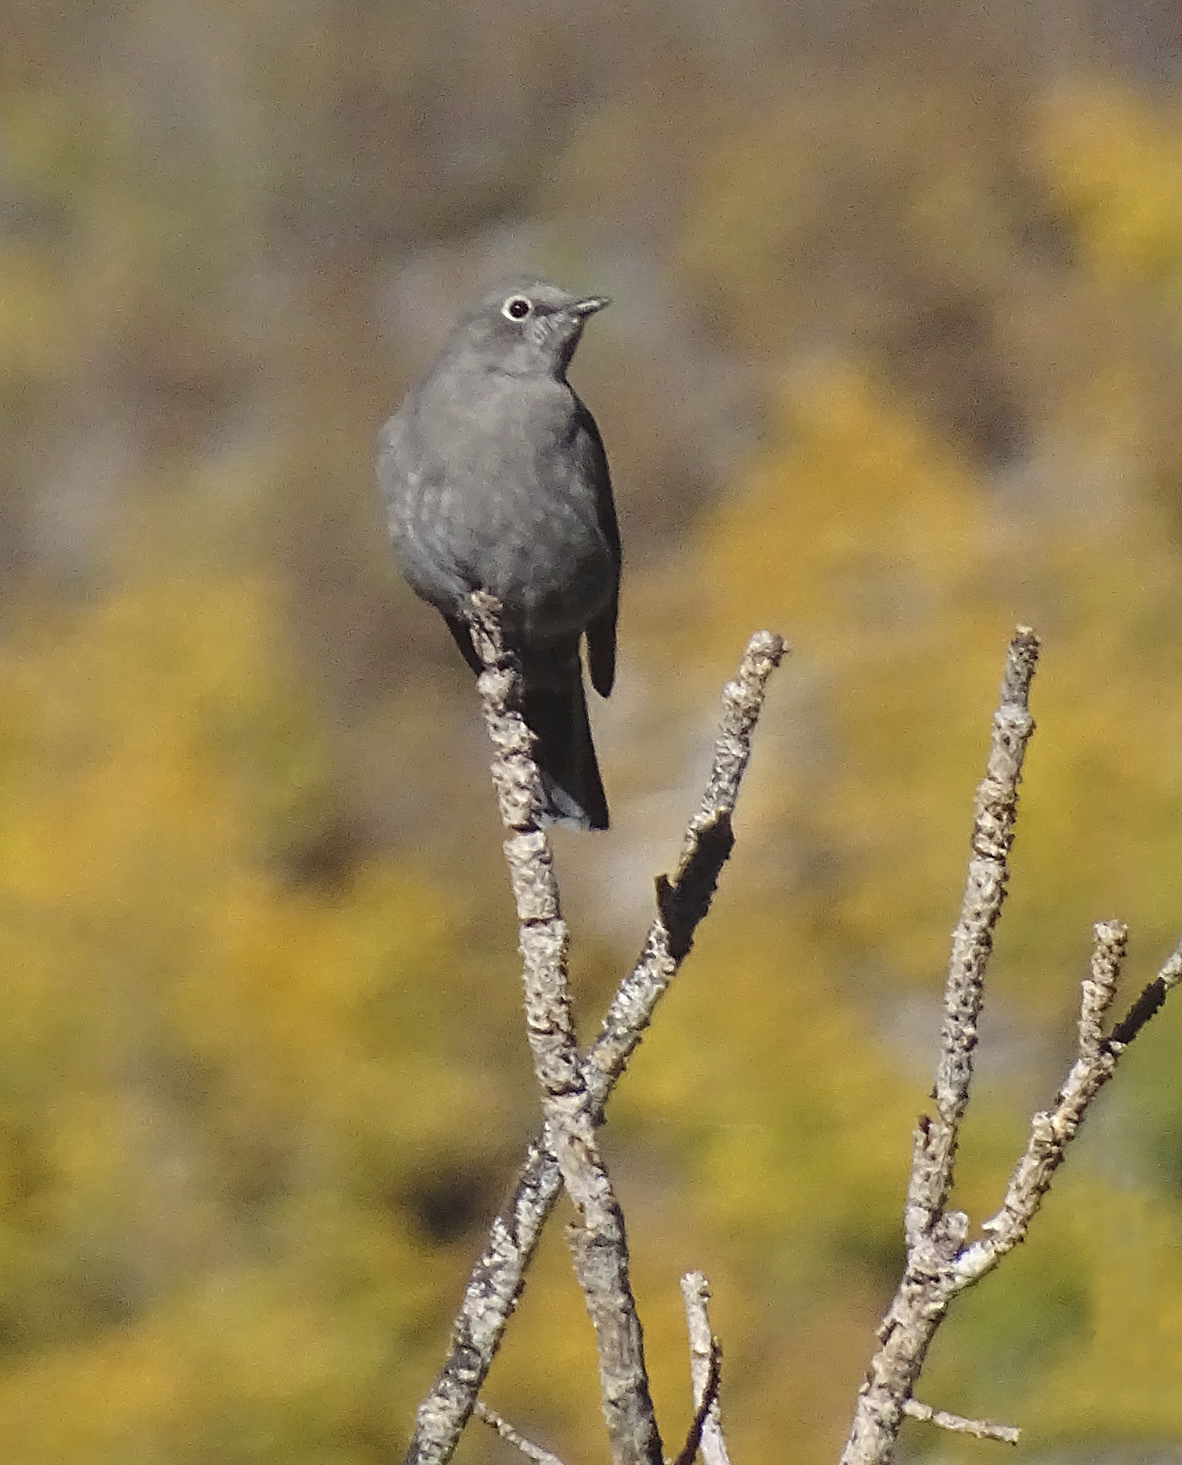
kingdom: Animalia
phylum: Chordata
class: Aves
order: Passeriformes
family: Turdidae
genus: Myadestes
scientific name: Myadestes townsendi
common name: Townsend's solitaire
